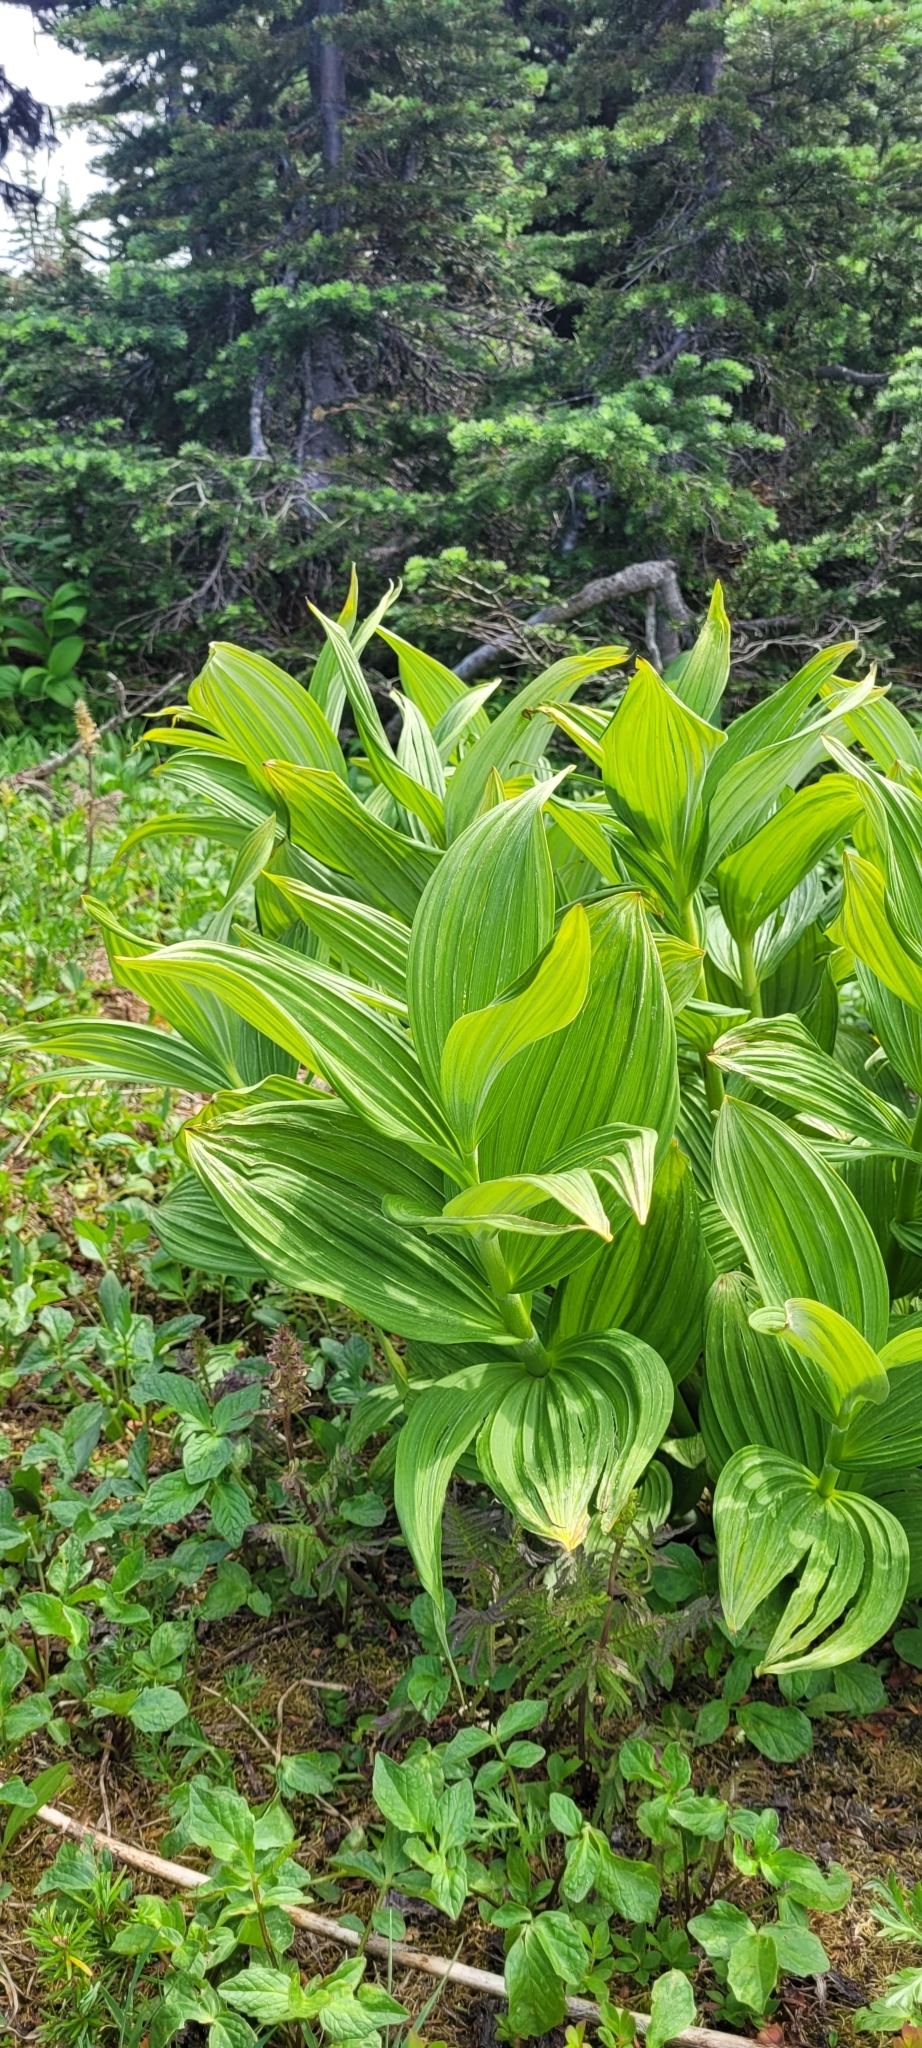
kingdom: Plantae
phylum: Tracheophyta
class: Liliopsida
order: Liliales
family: Melanthiaceae
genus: Veratrum
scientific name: Veratrum viride
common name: American false hellebore
